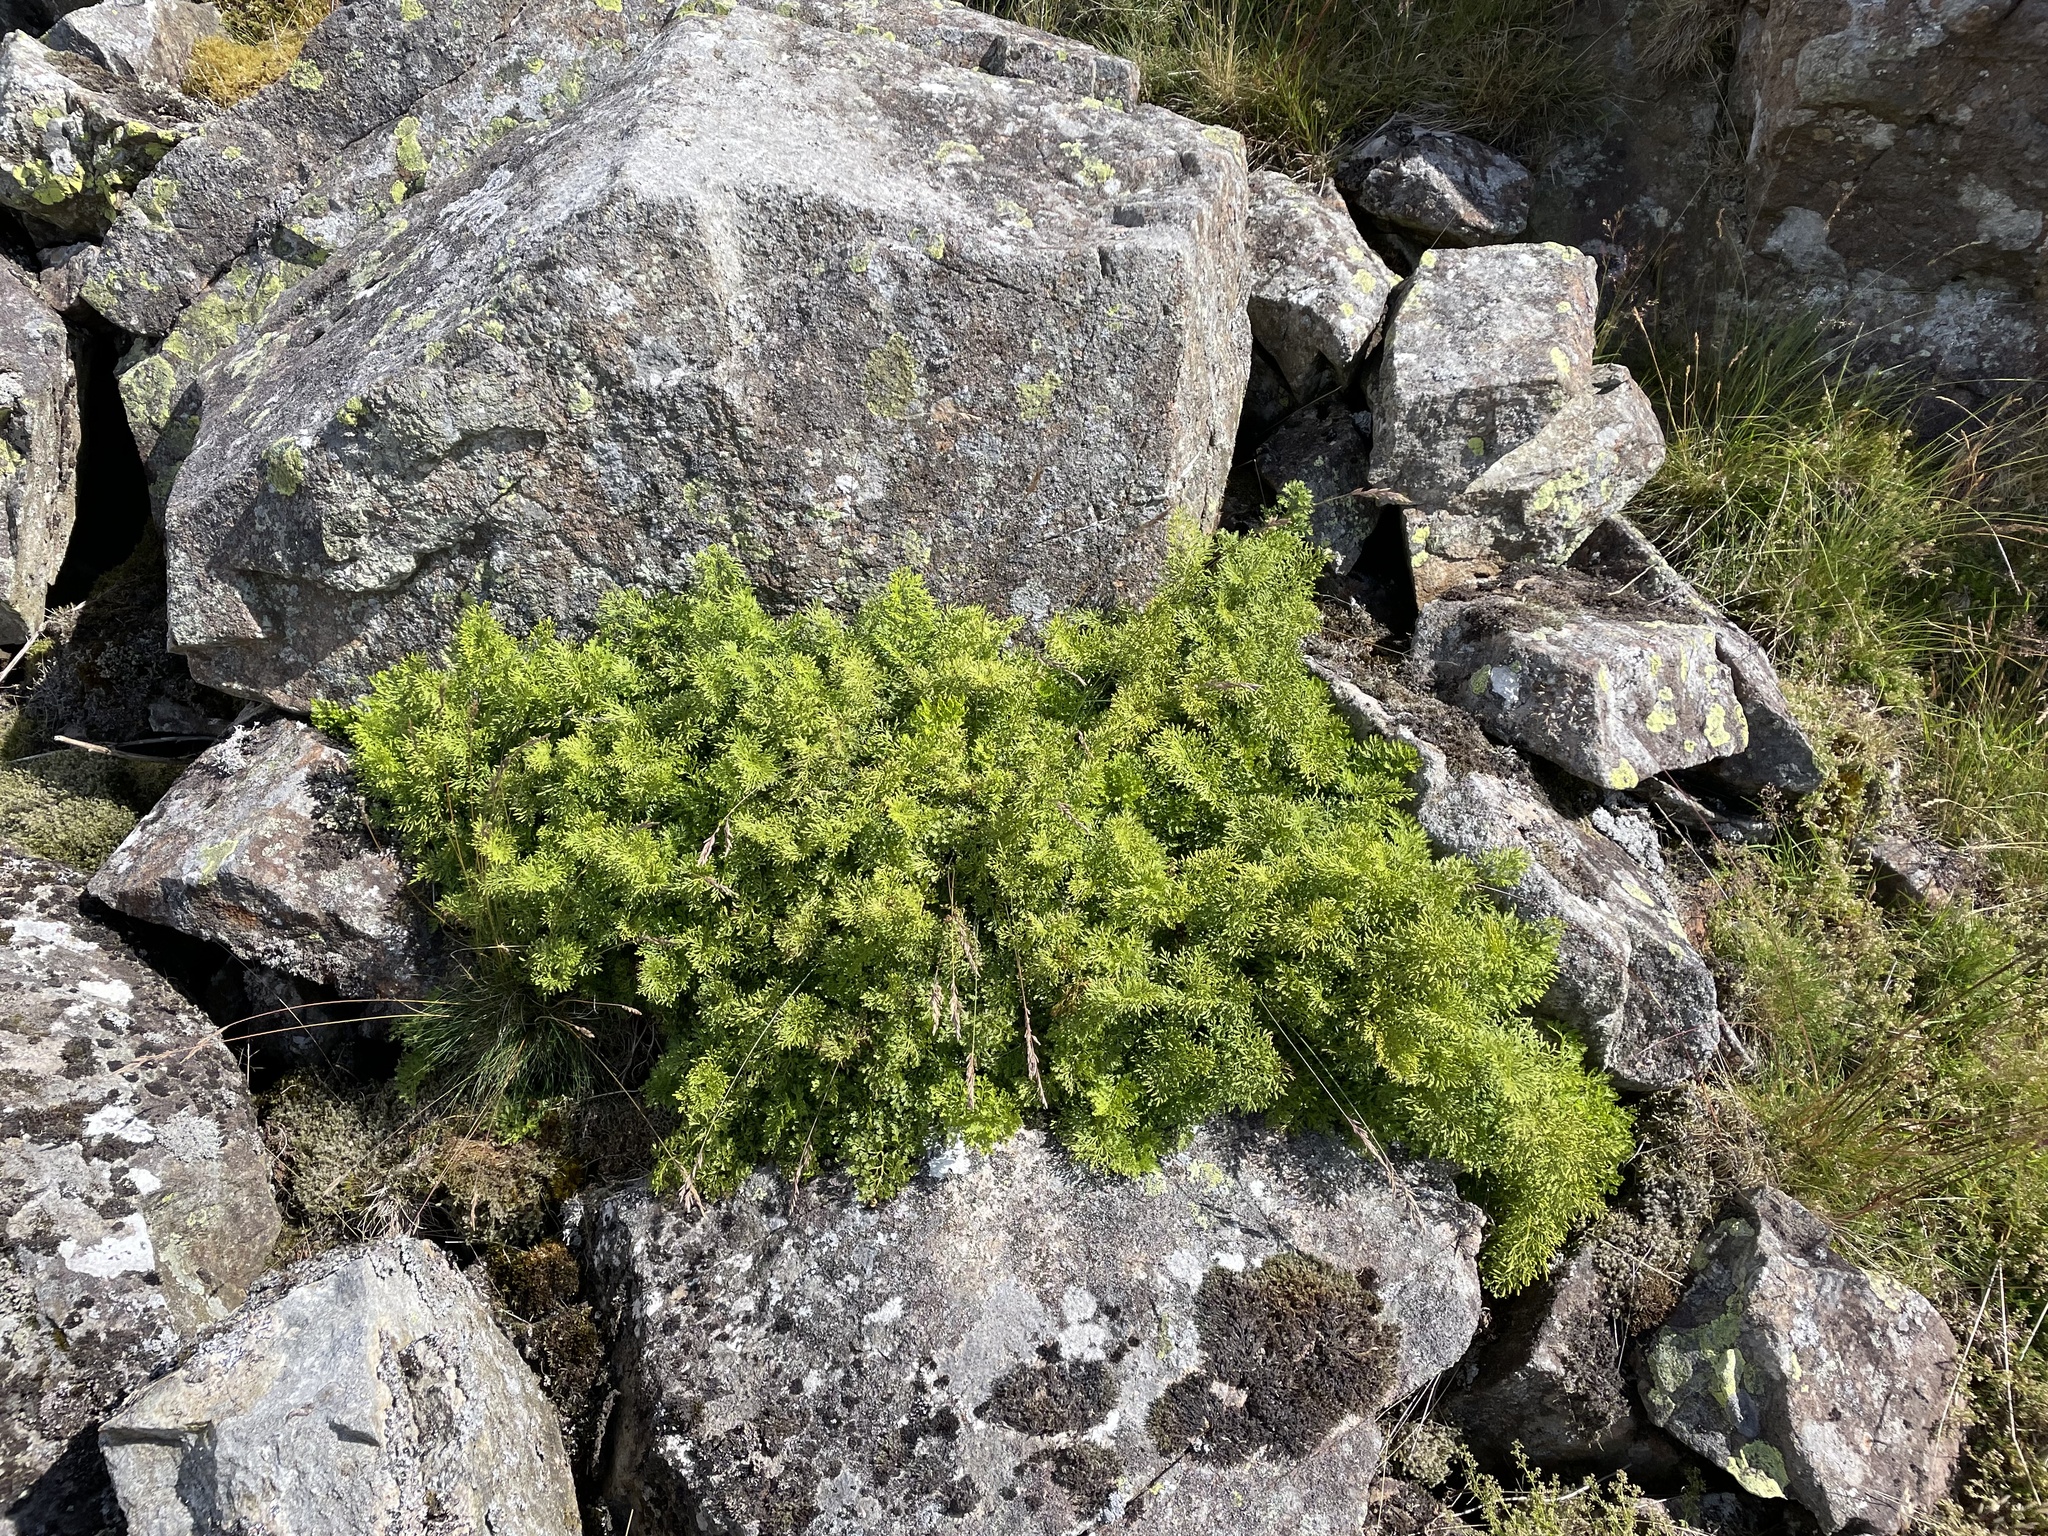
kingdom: Plantae
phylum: Tracheophyta
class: Polypodiopsida
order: Polypodiales
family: Pteridaceae
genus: Cryptogramma
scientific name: Cryptogramma crispa
